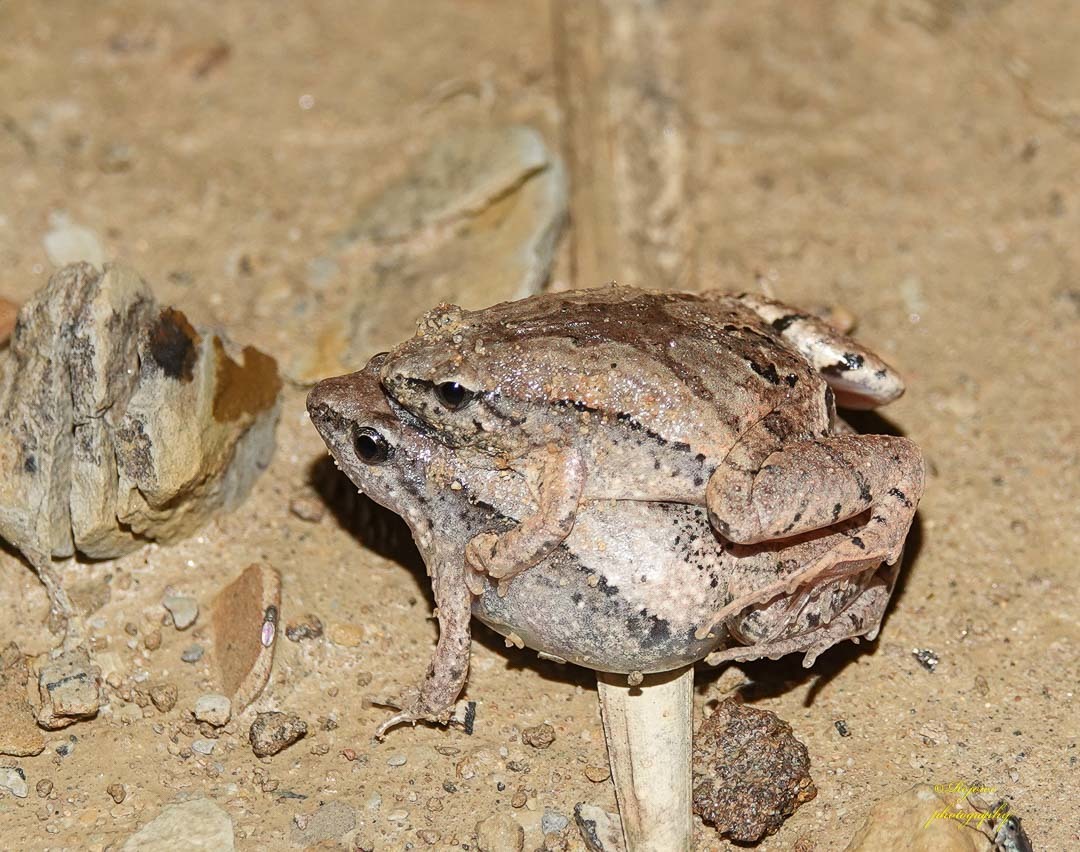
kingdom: Animalia
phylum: Chordata
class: Amphibia
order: Anura
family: Microhylidae
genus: Microhyla
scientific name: Microhyla mymensinghensis
